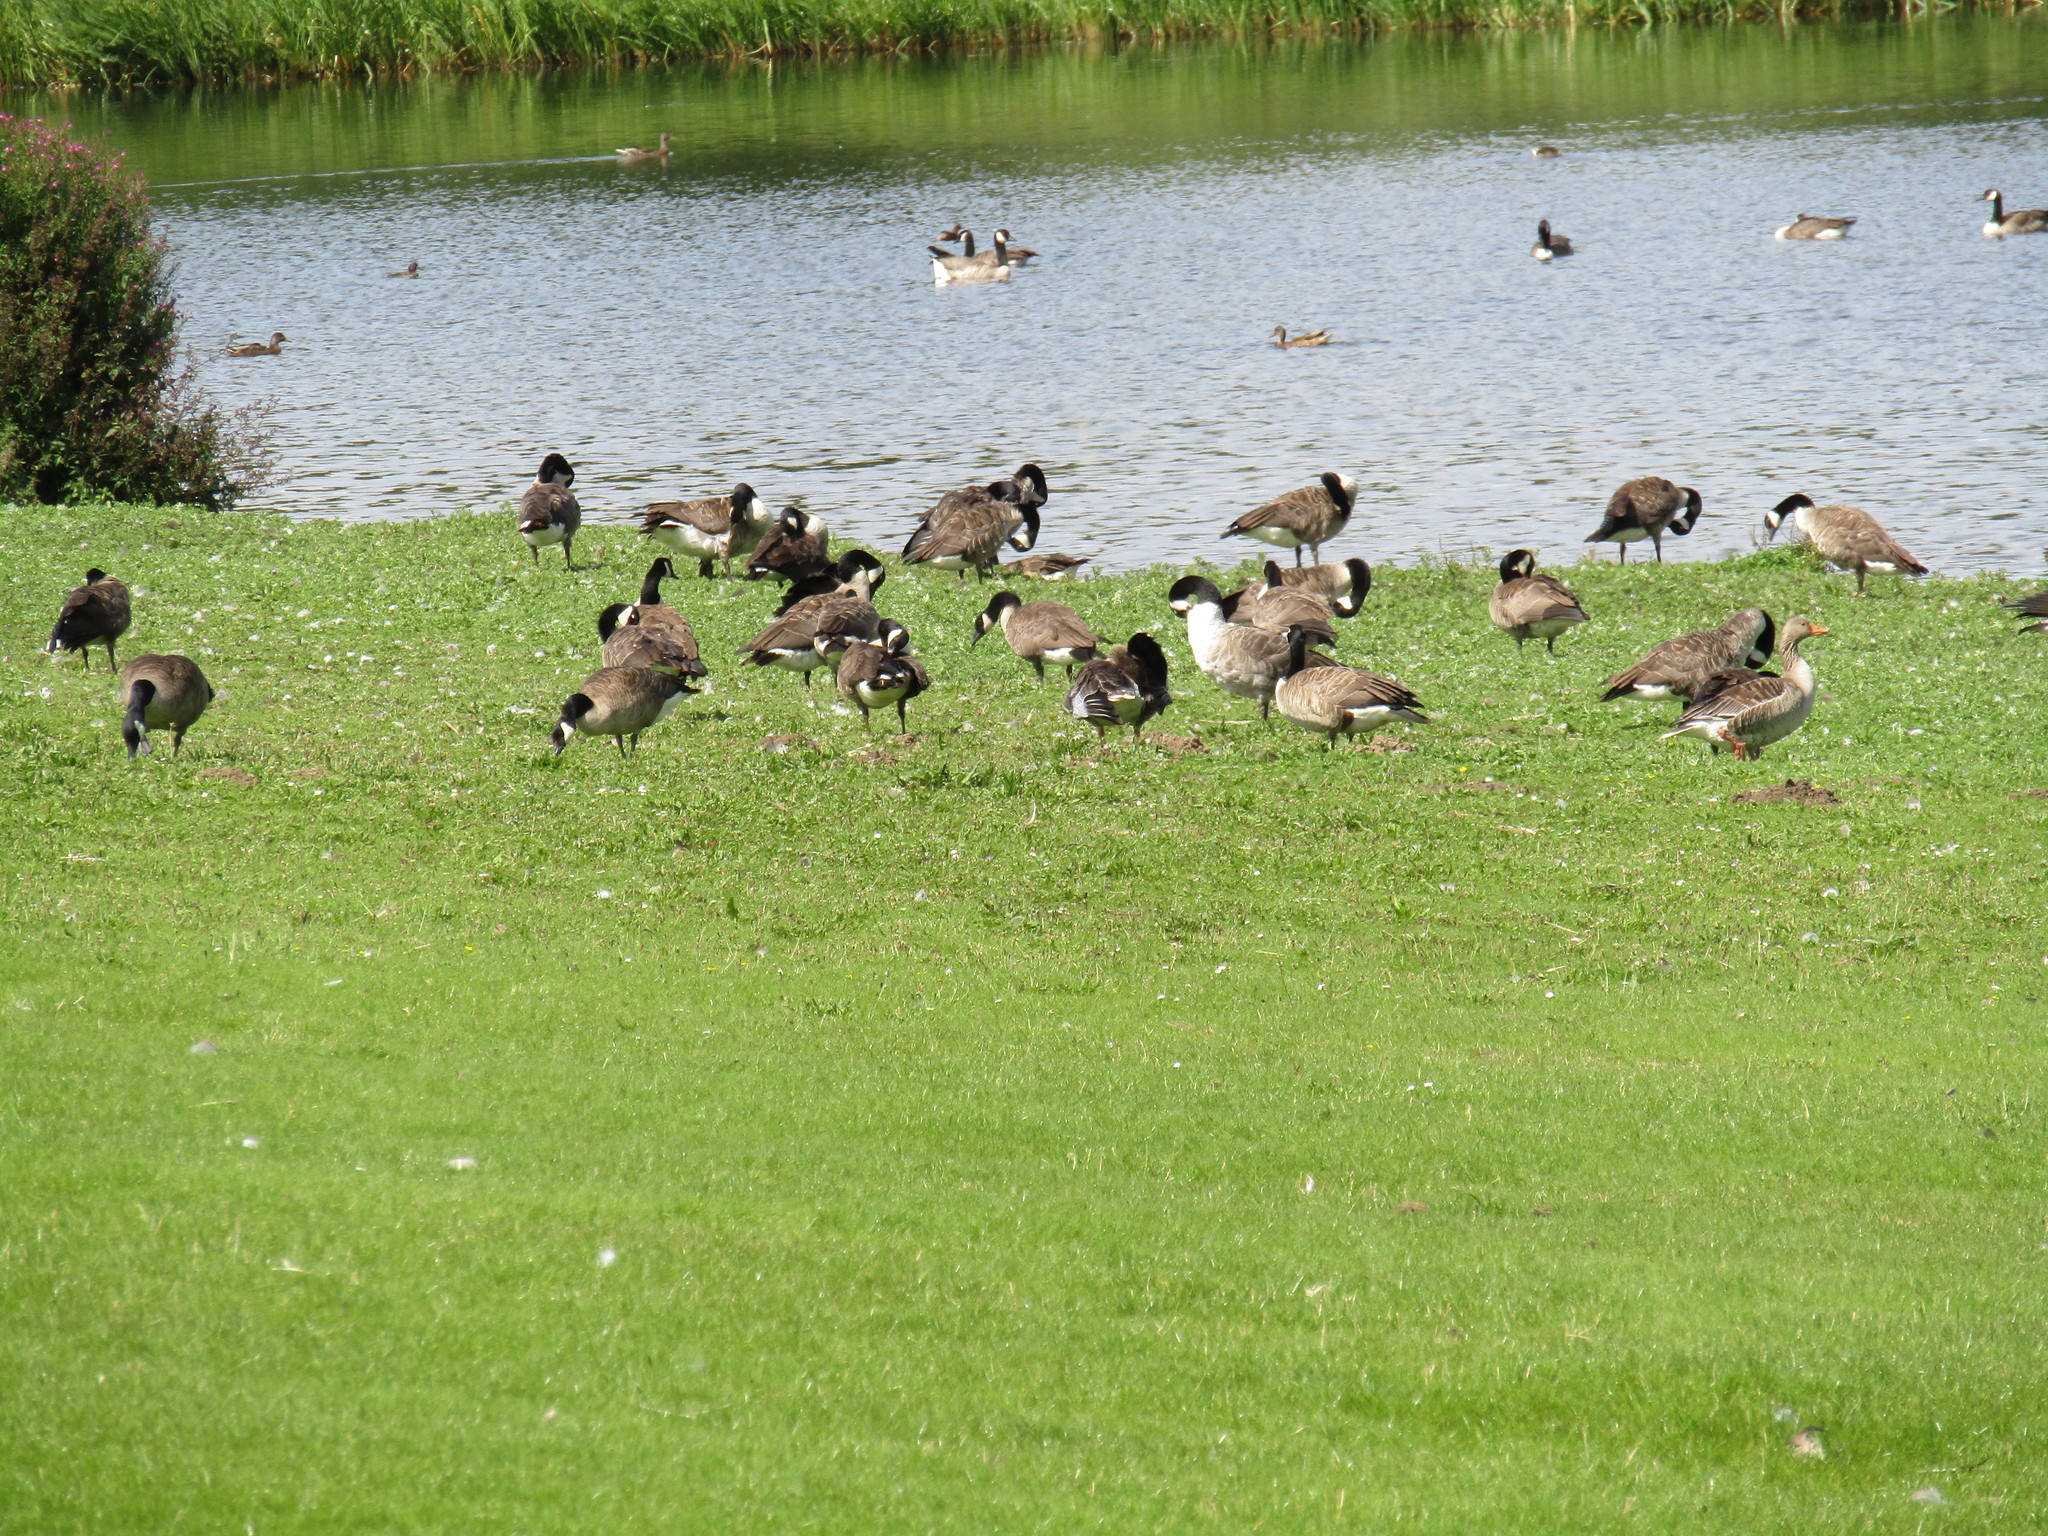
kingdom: Animalia
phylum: Chordata
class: Aves
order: Anseriformes
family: Anatidae
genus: Branta
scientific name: Branta canadensis
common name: Canada goose
